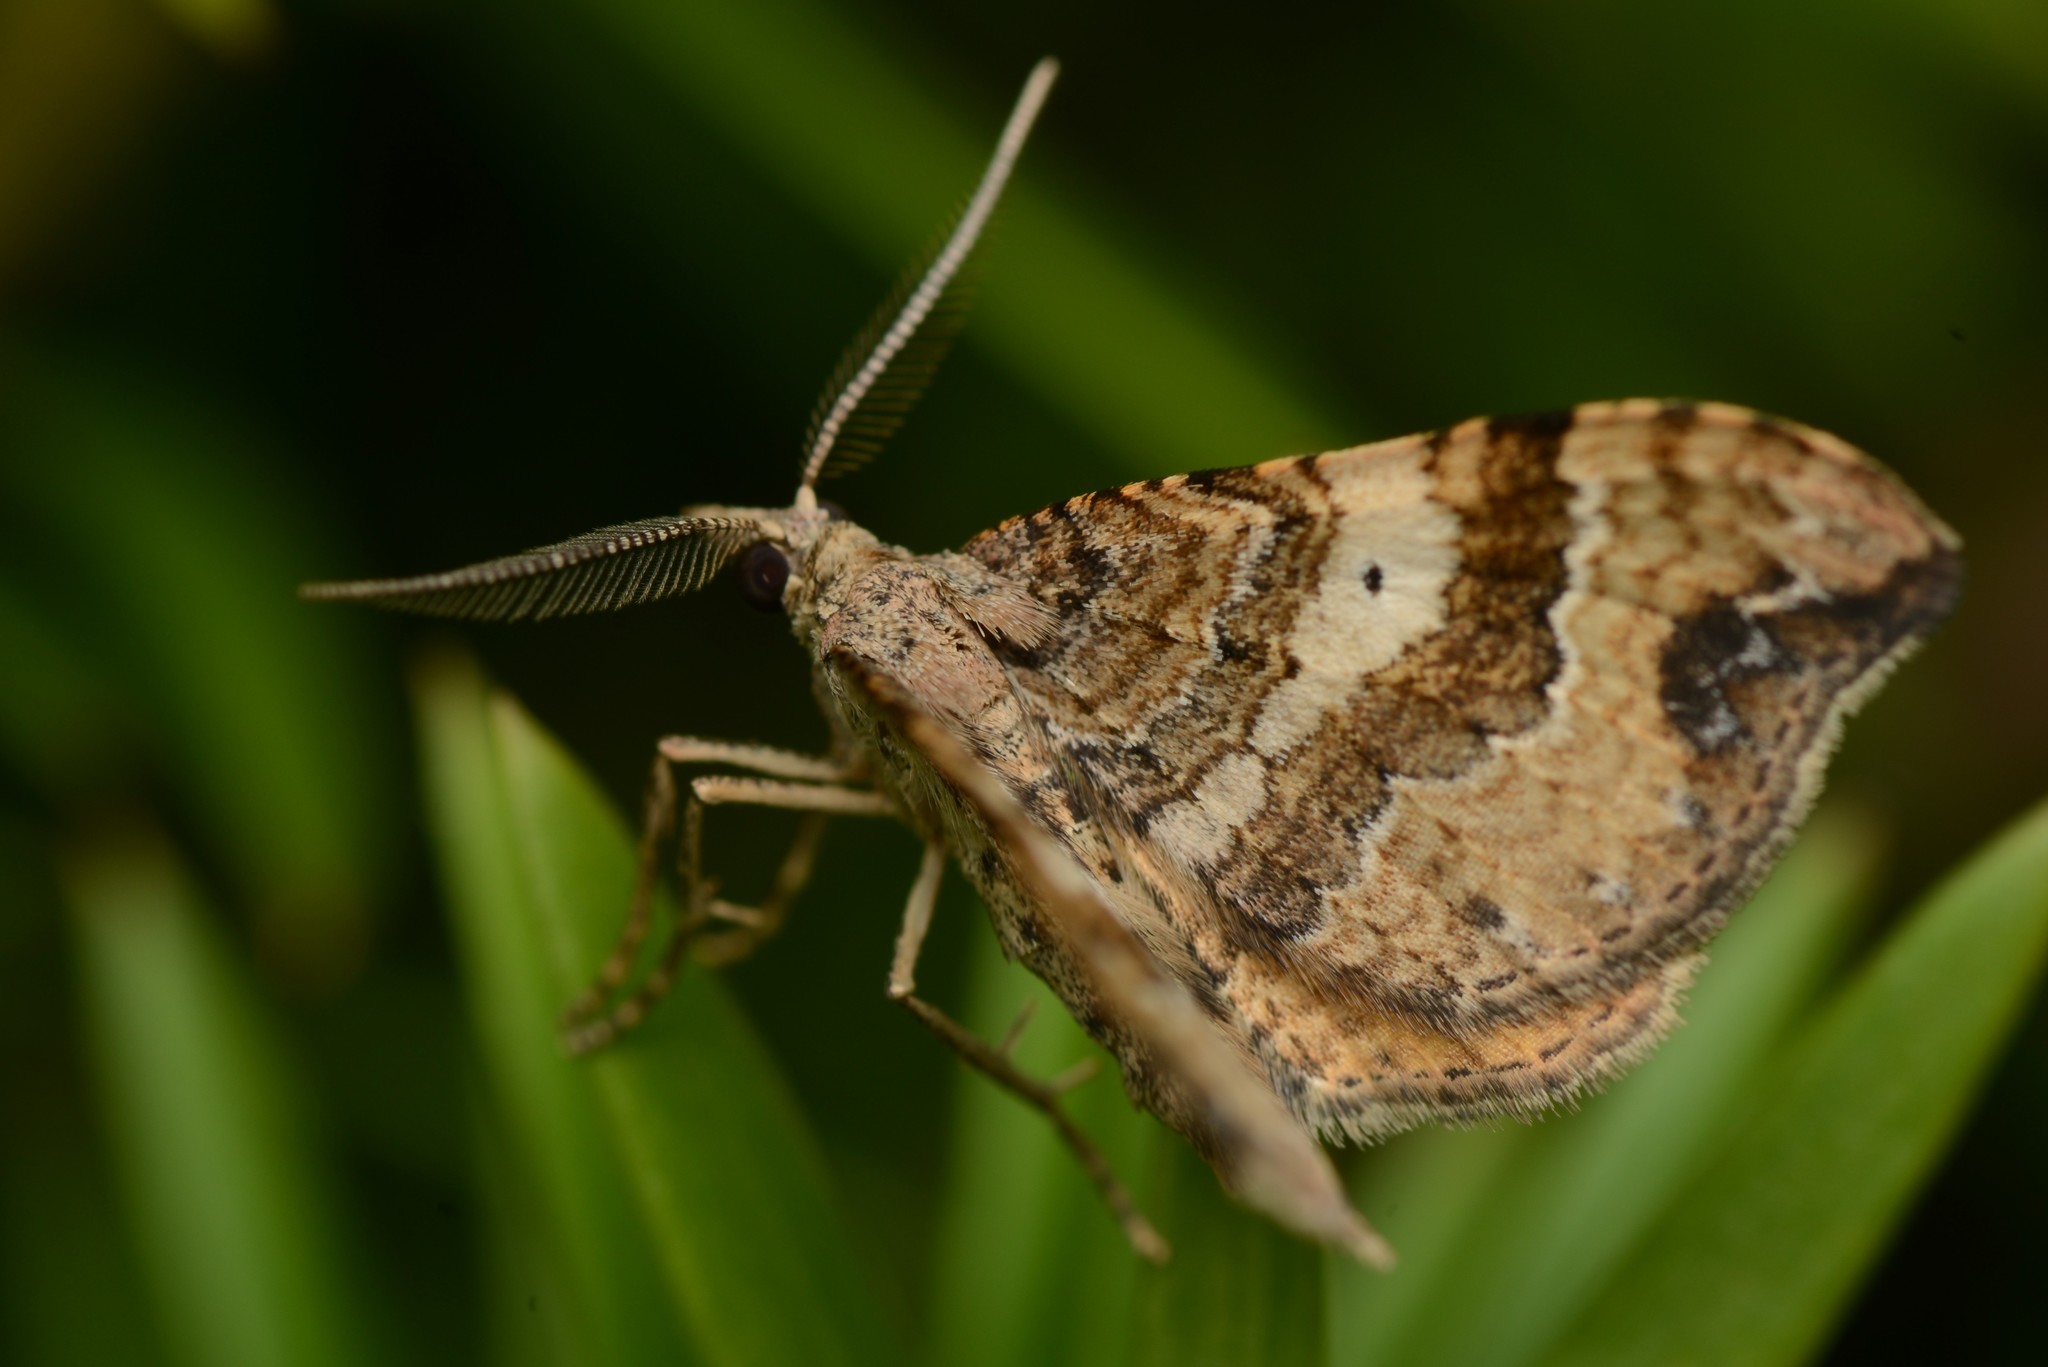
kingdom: Animalia
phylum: Arthropoda
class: Insecta
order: Lepidoptera
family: Geometridae
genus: Homodotis
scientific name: Homodotis megaspilata
